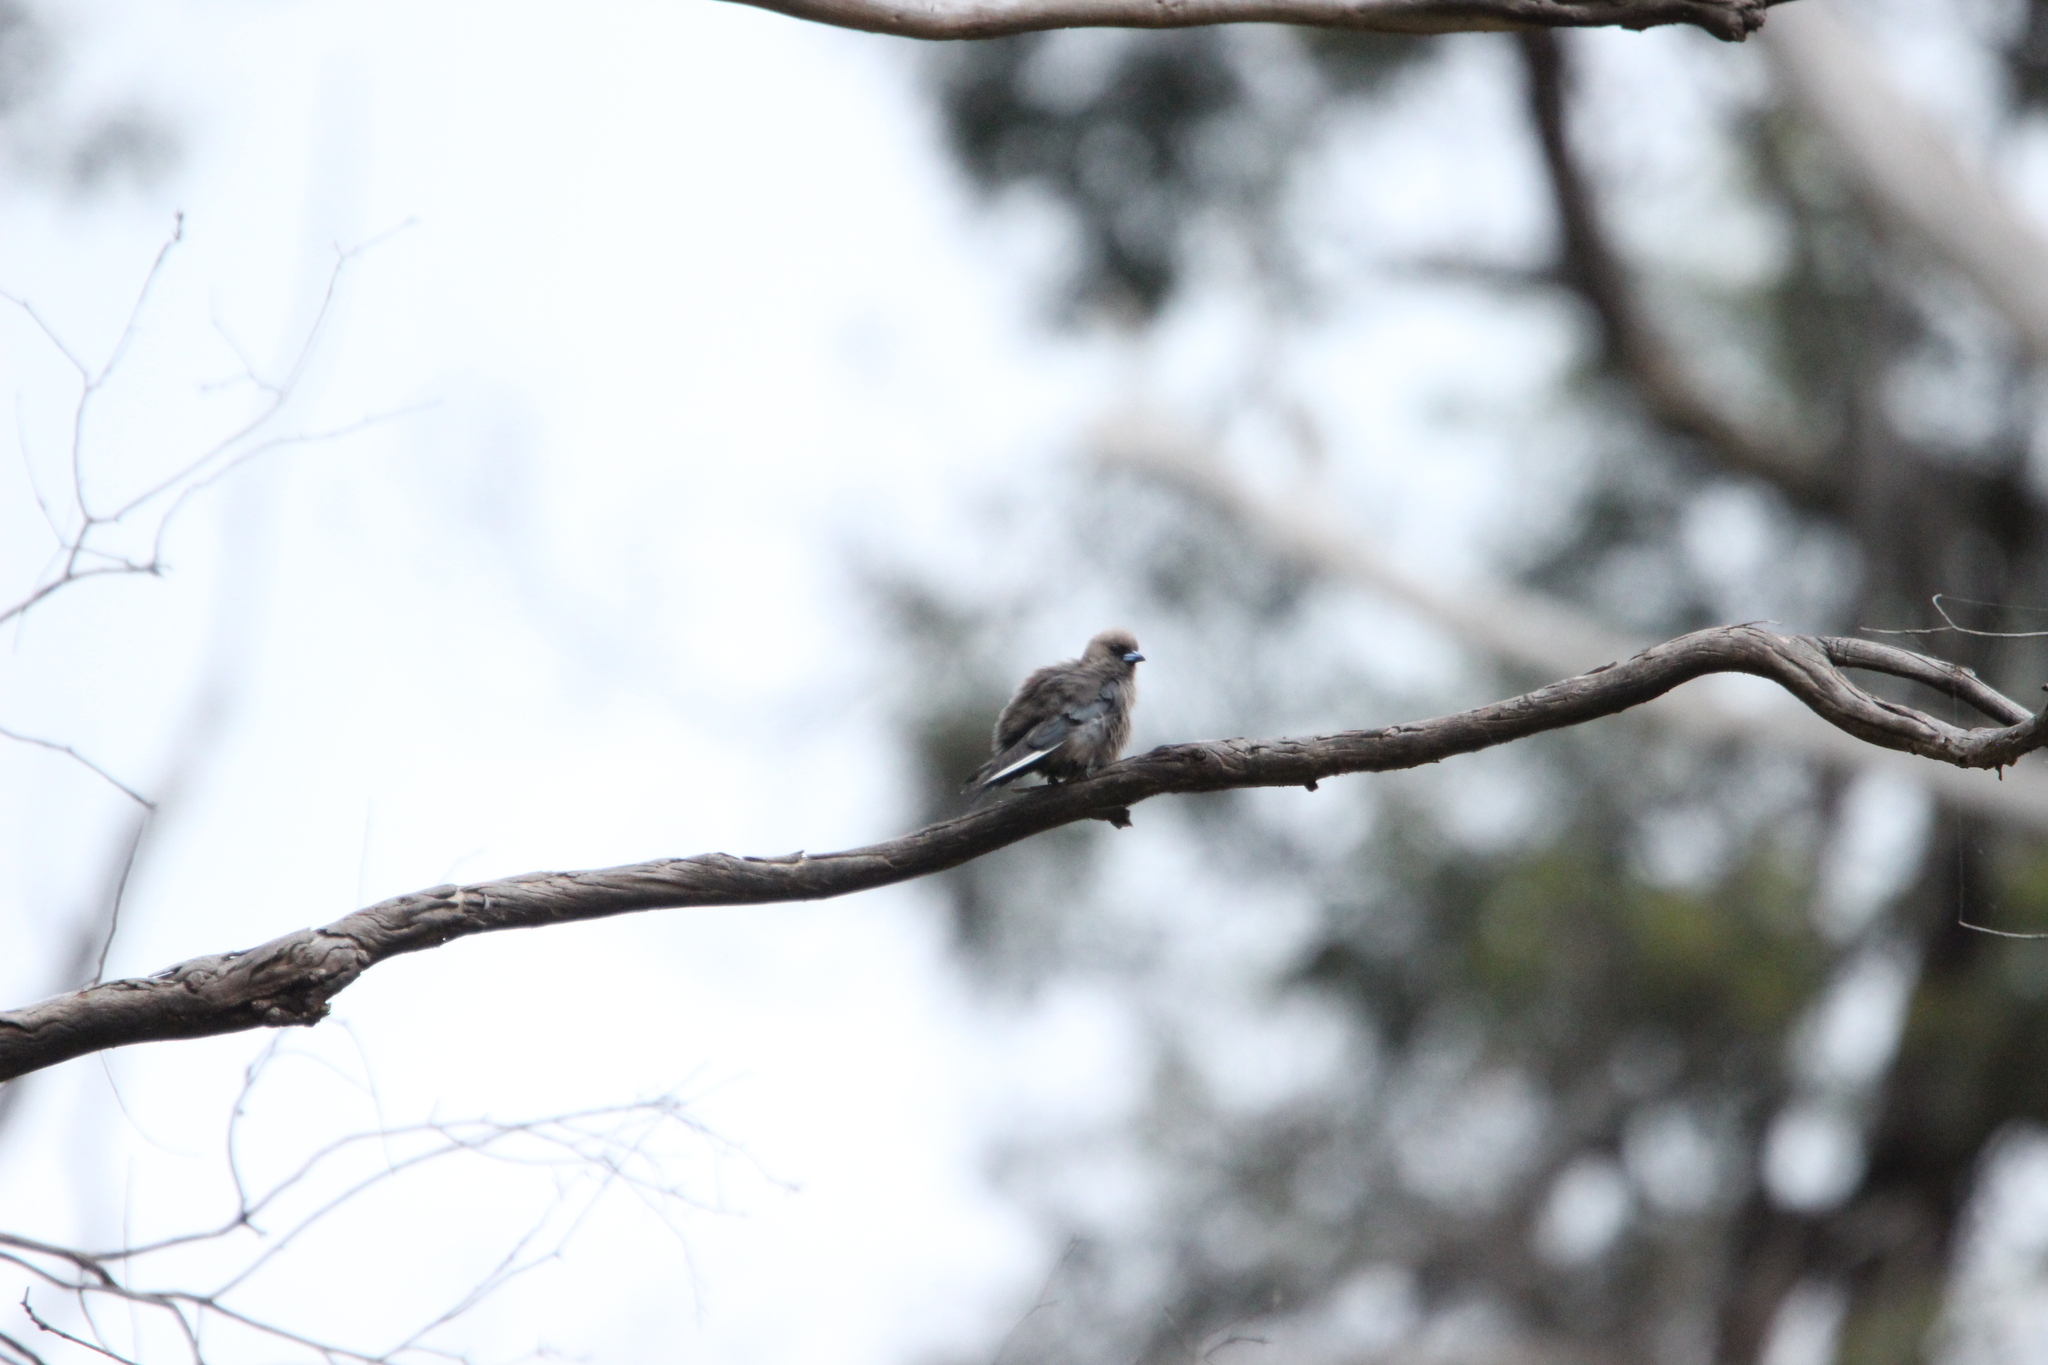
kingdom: Animalia
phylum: Chordata
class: Aves
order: Passeriformes
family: Artamidae
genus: Artamus
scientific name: Artamus cyanopterus
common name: Dusky woodswallow
